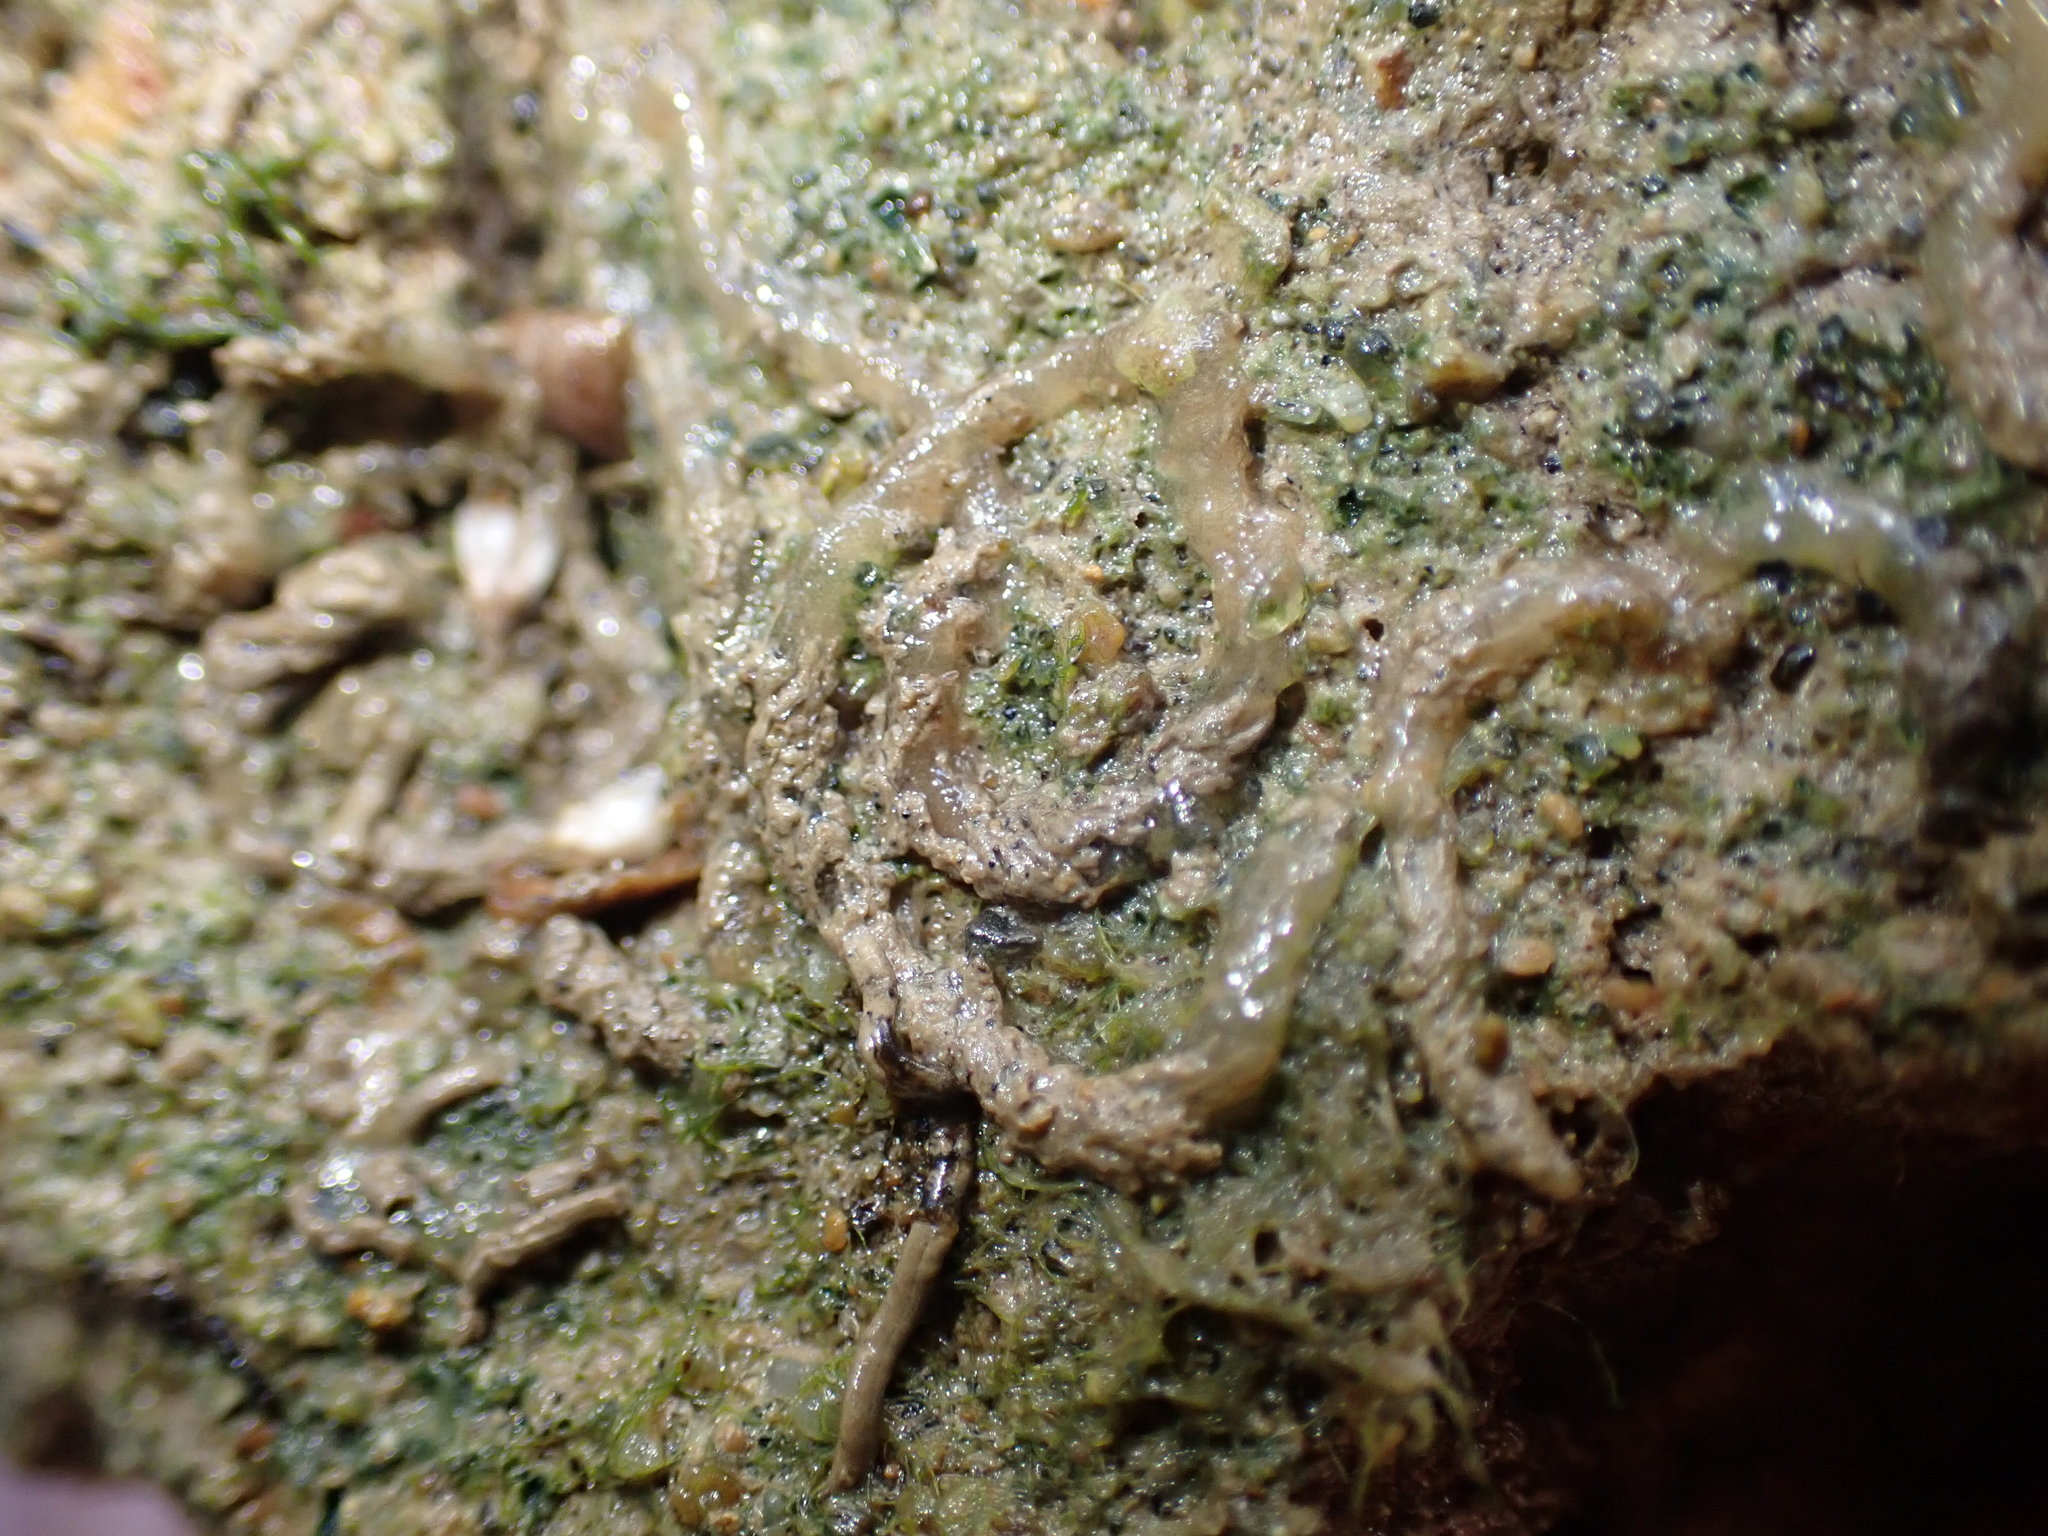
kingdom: Animalia
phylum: Mollusca
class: Gastropoda
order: Ellobiida
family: Ellobiidae
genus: Pleuroloba
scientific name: Pleuroloba costellaris
